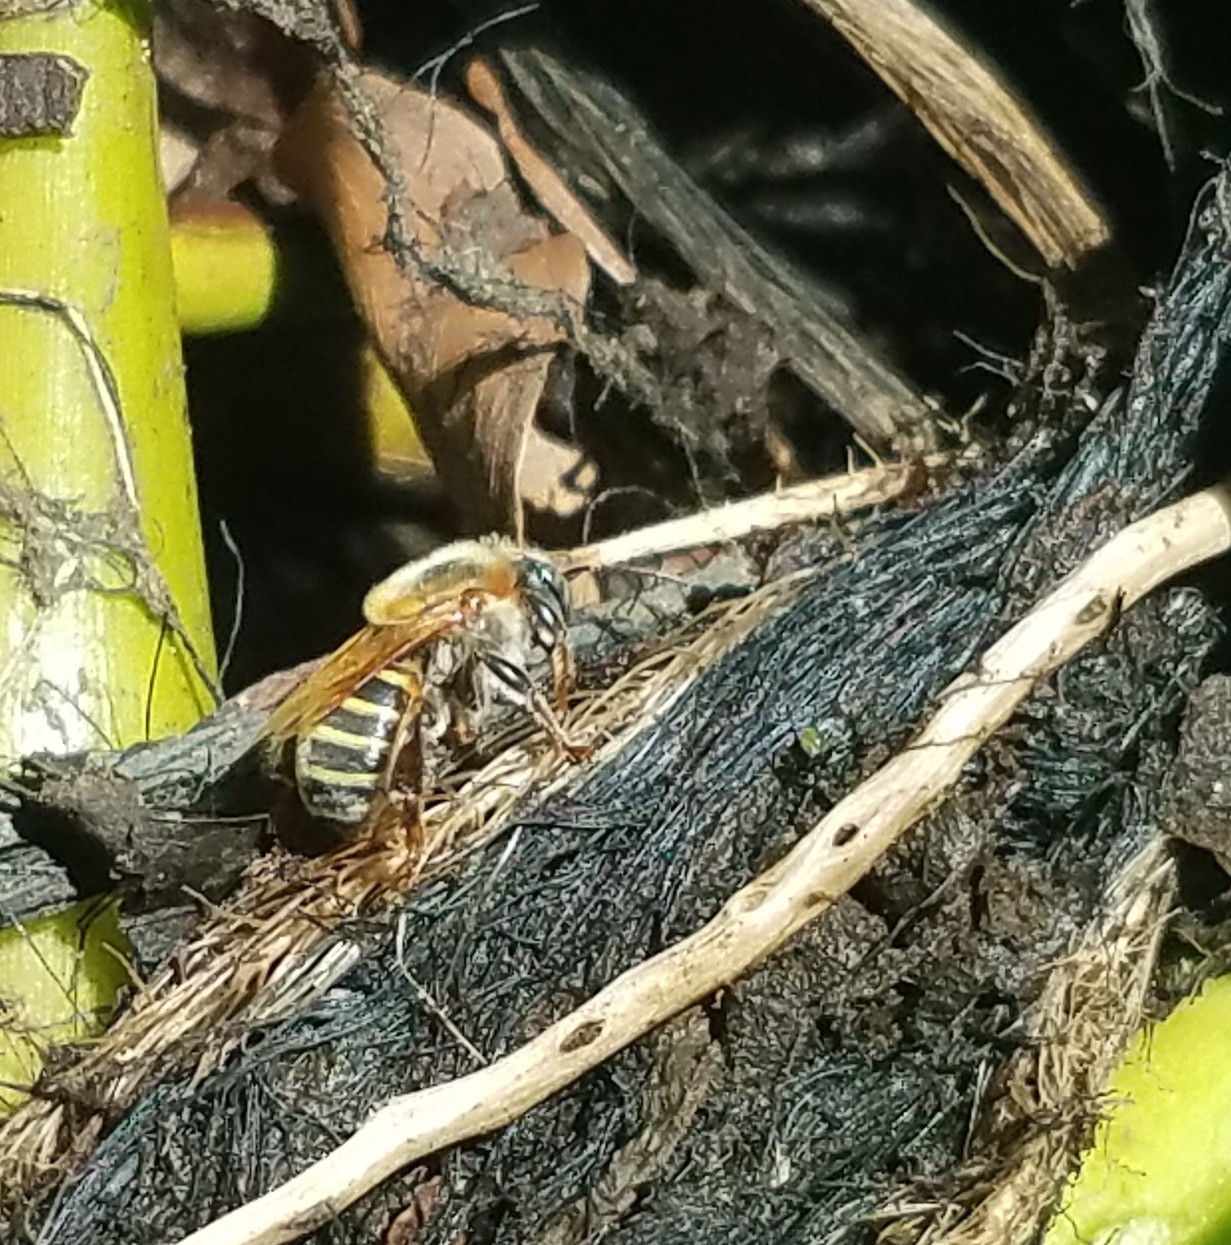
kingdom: Animalia
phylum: Arthropoda
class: Insecta
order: Hymenoptera
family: Apidae
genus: Melipona
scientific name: Melipona beecheii
